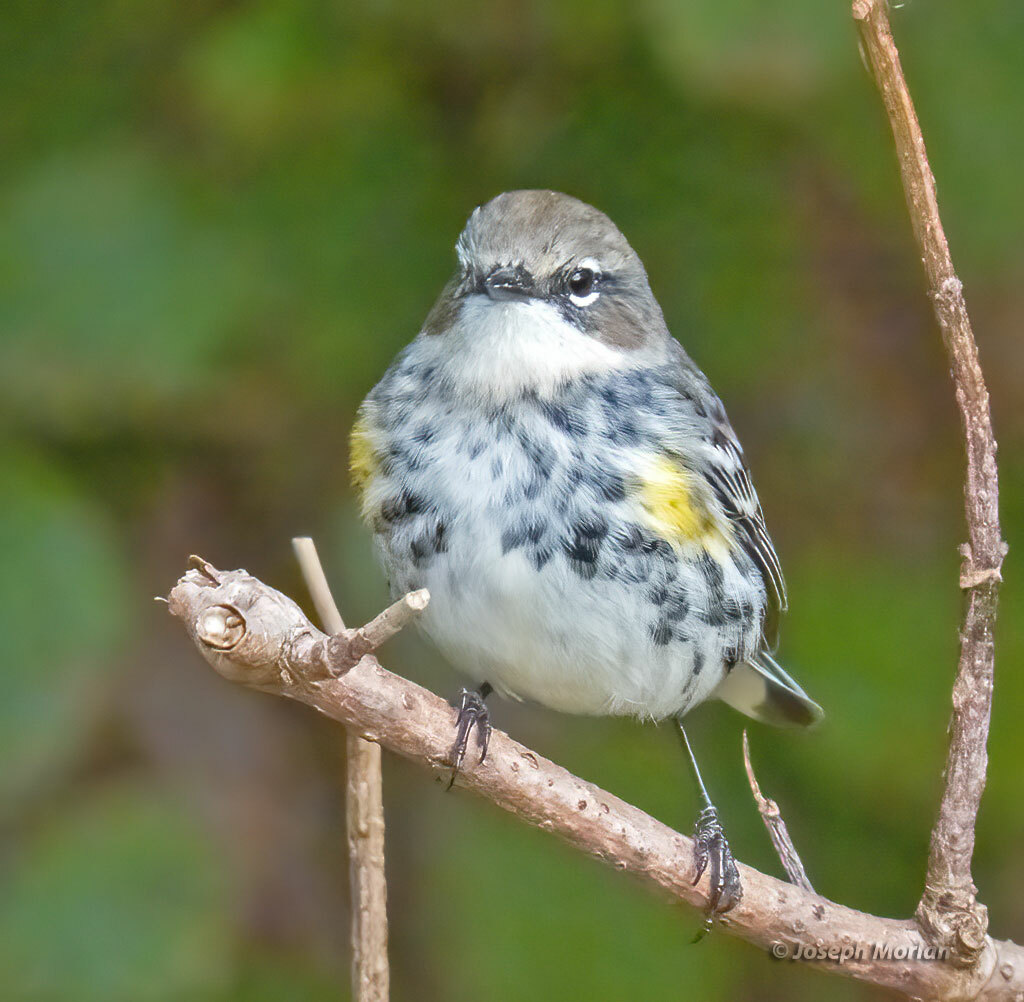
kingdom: Animalia
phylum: Chordata
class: Aves
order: Passeriformes
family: Parulidae
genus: Setophaga
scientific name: Setophaga coronata
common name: Myrtle warbler
